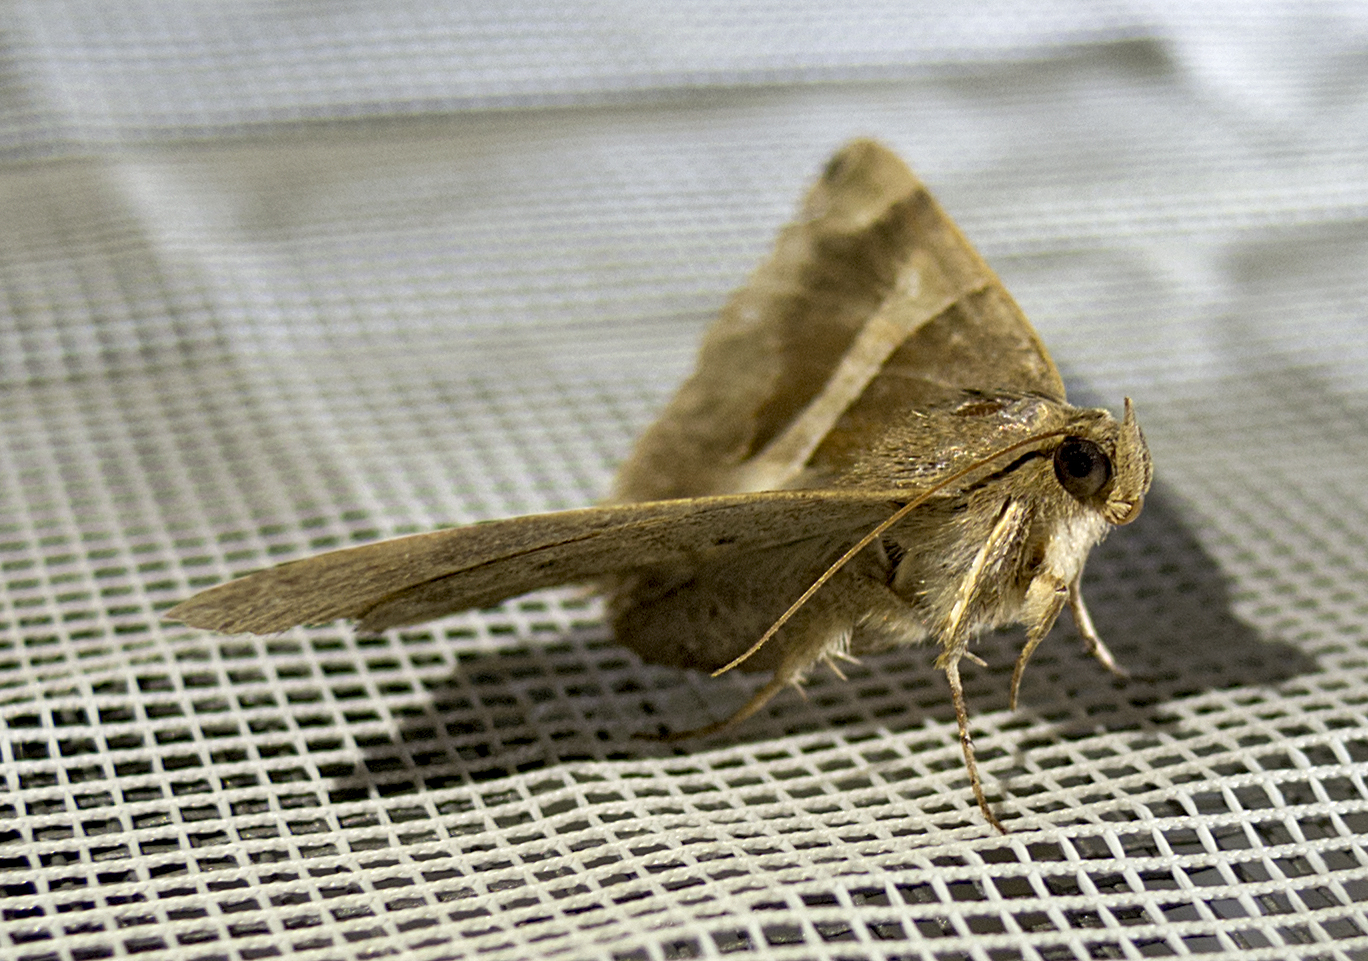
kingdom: Animalia
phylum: Arthropoda
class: Insecta
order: Lepidoptera
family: Erebidae
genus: Dysgonia
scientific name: Dysgonia algira
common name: Passenger
